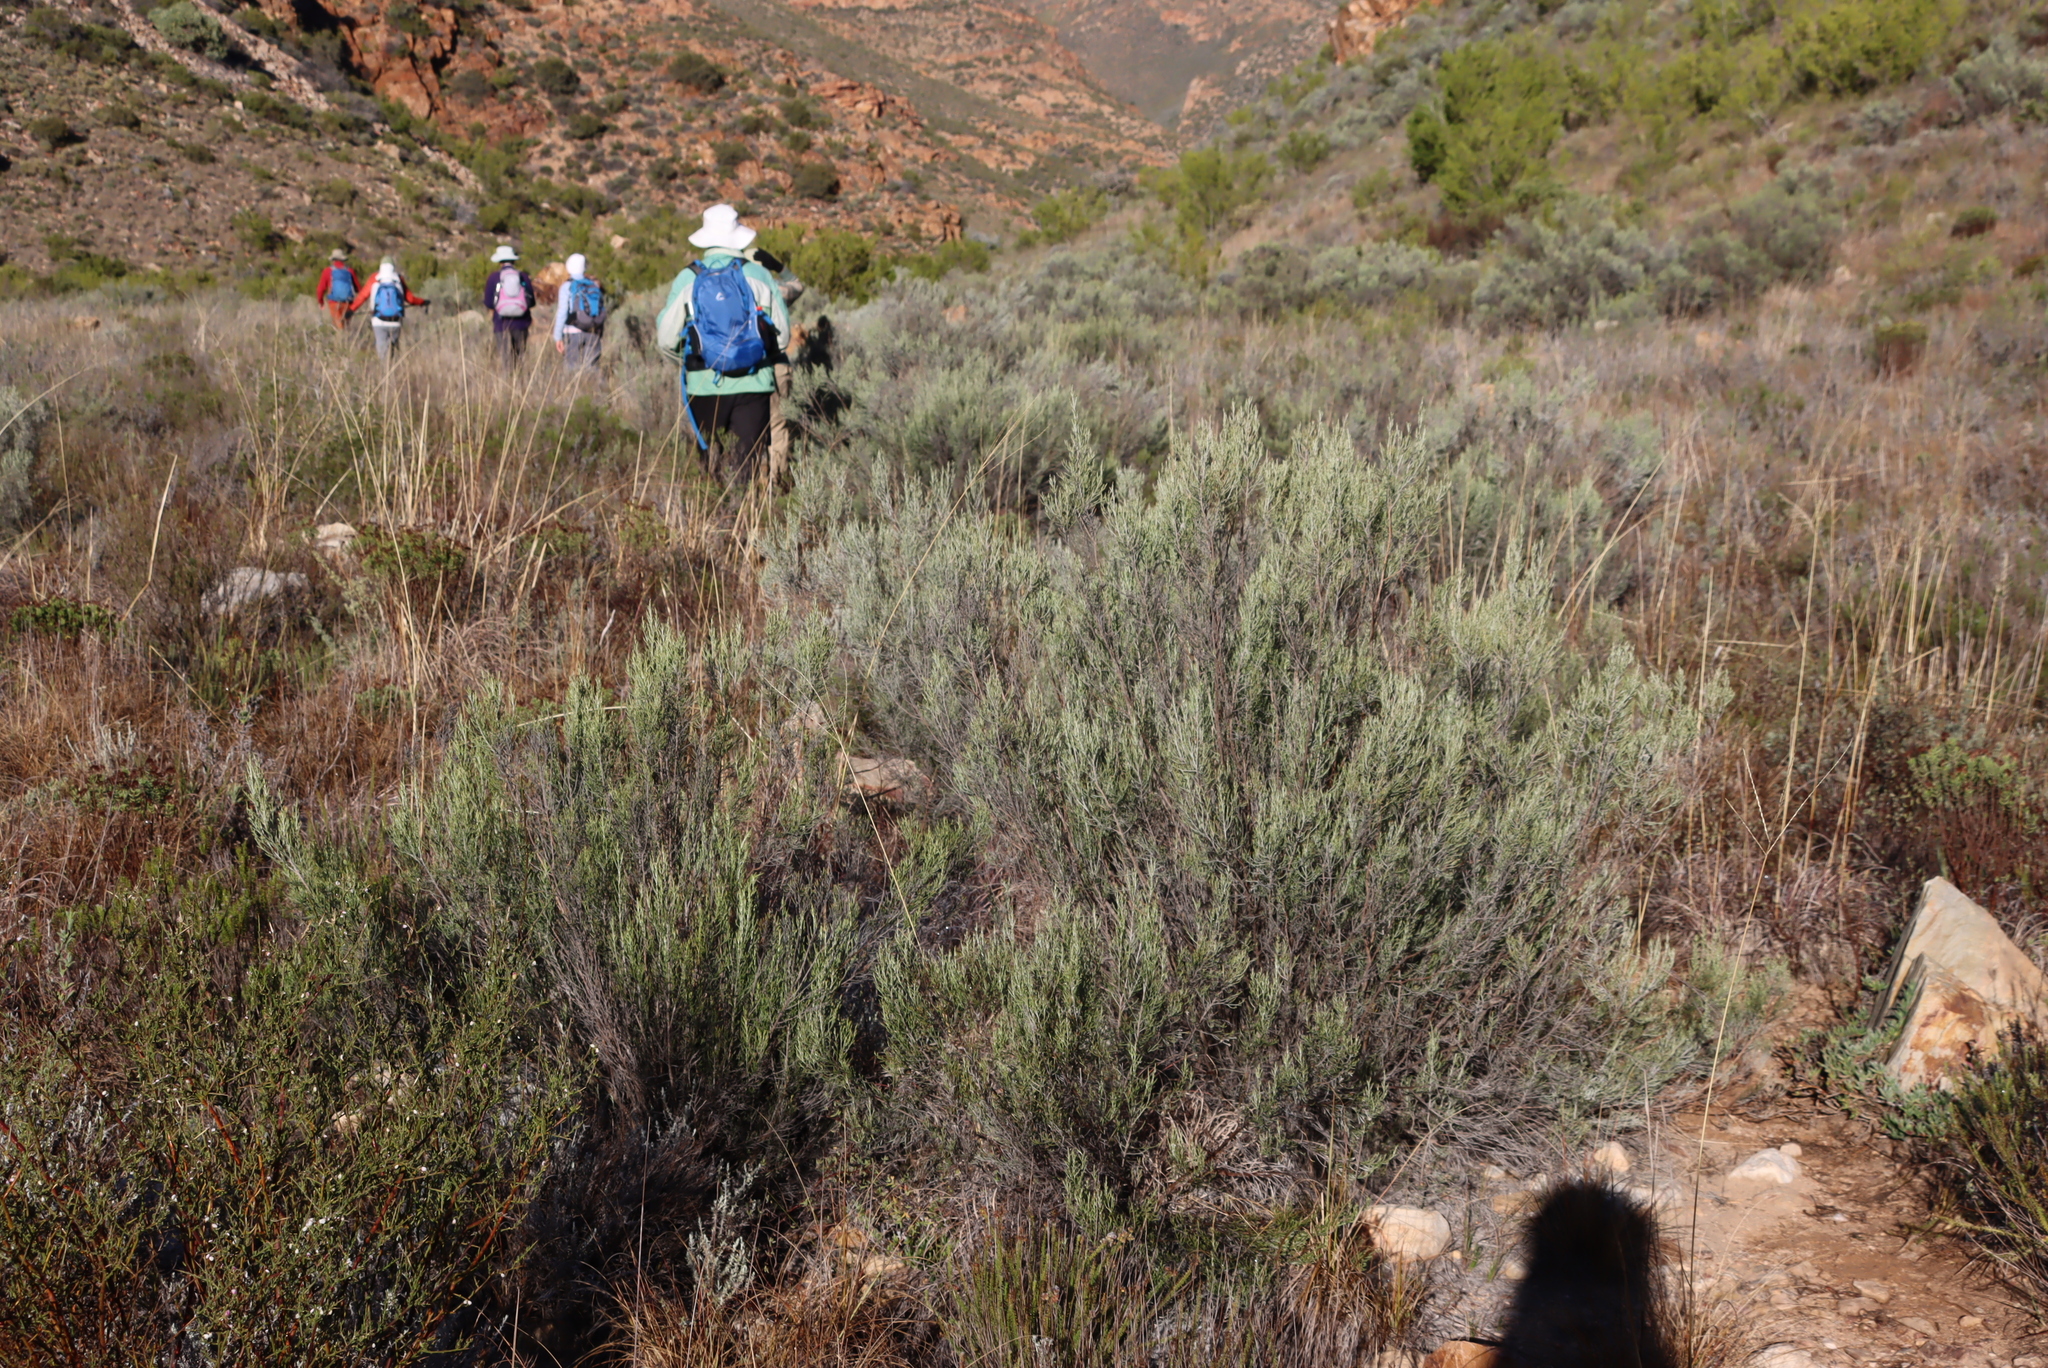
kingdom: Plantae
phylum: Tracheophyta
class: Magnoliopsida
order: Asterales
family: Asteraceae
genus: Dicerothamnus
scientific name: Dicerothamnus rhinocerotis
